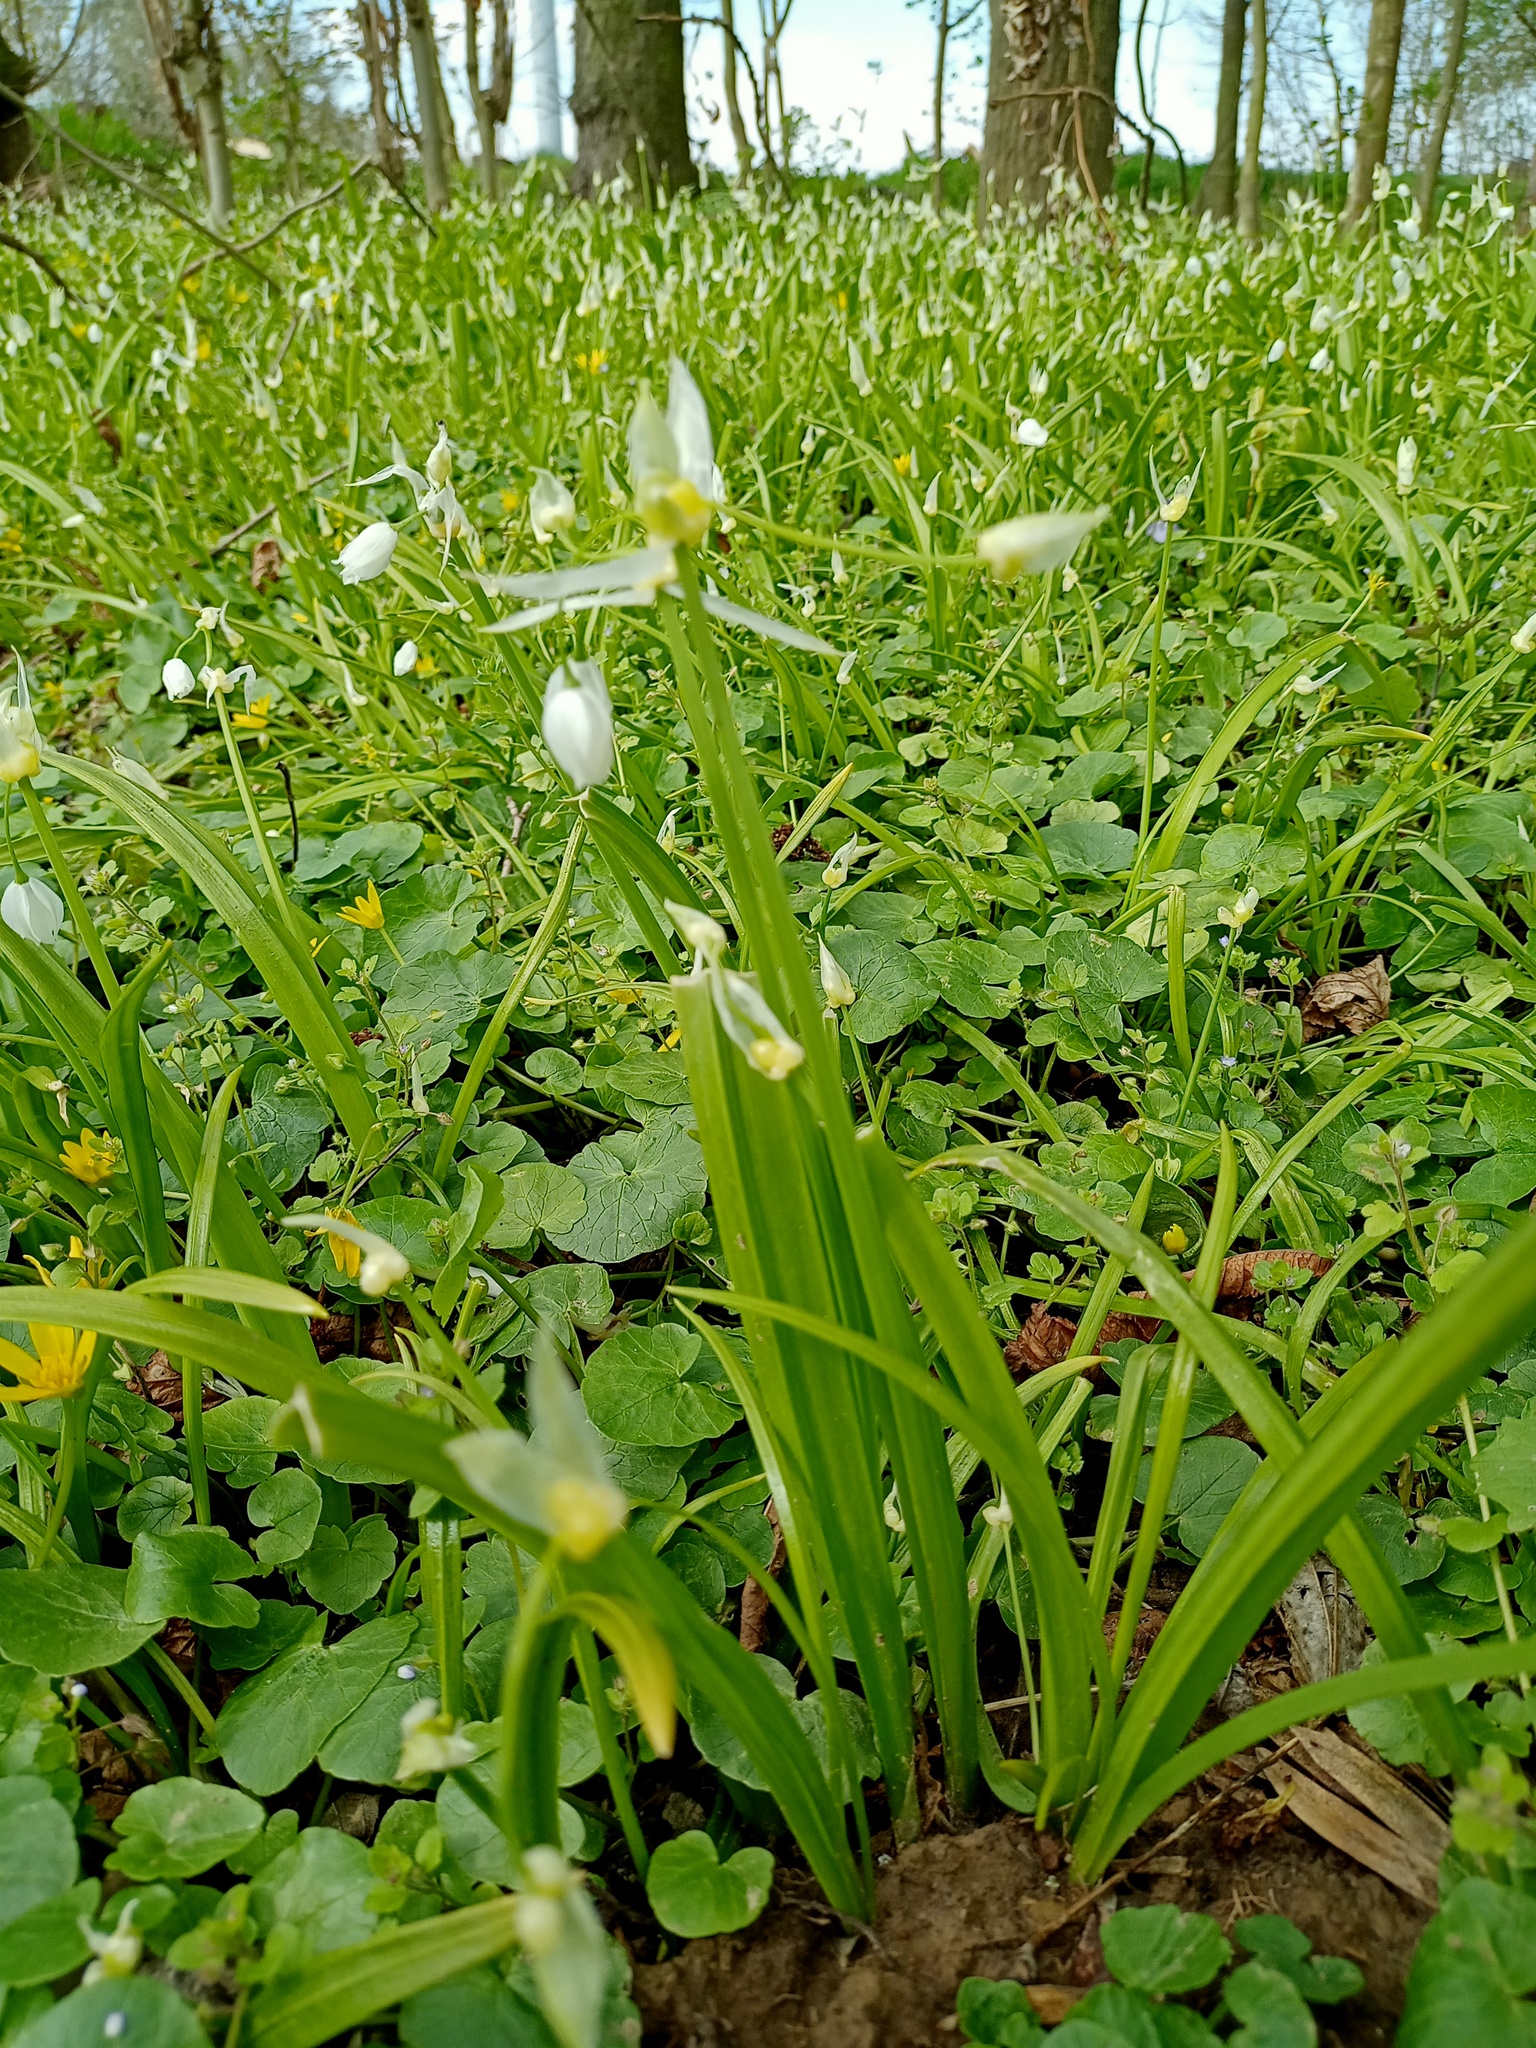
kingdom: Plantae
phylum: Tracheophyta
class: Liliopsida
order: Asparagales
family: Amaryllidaceae
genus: Allium
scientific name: Allium paradoxum
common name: Few-flowered garlic
